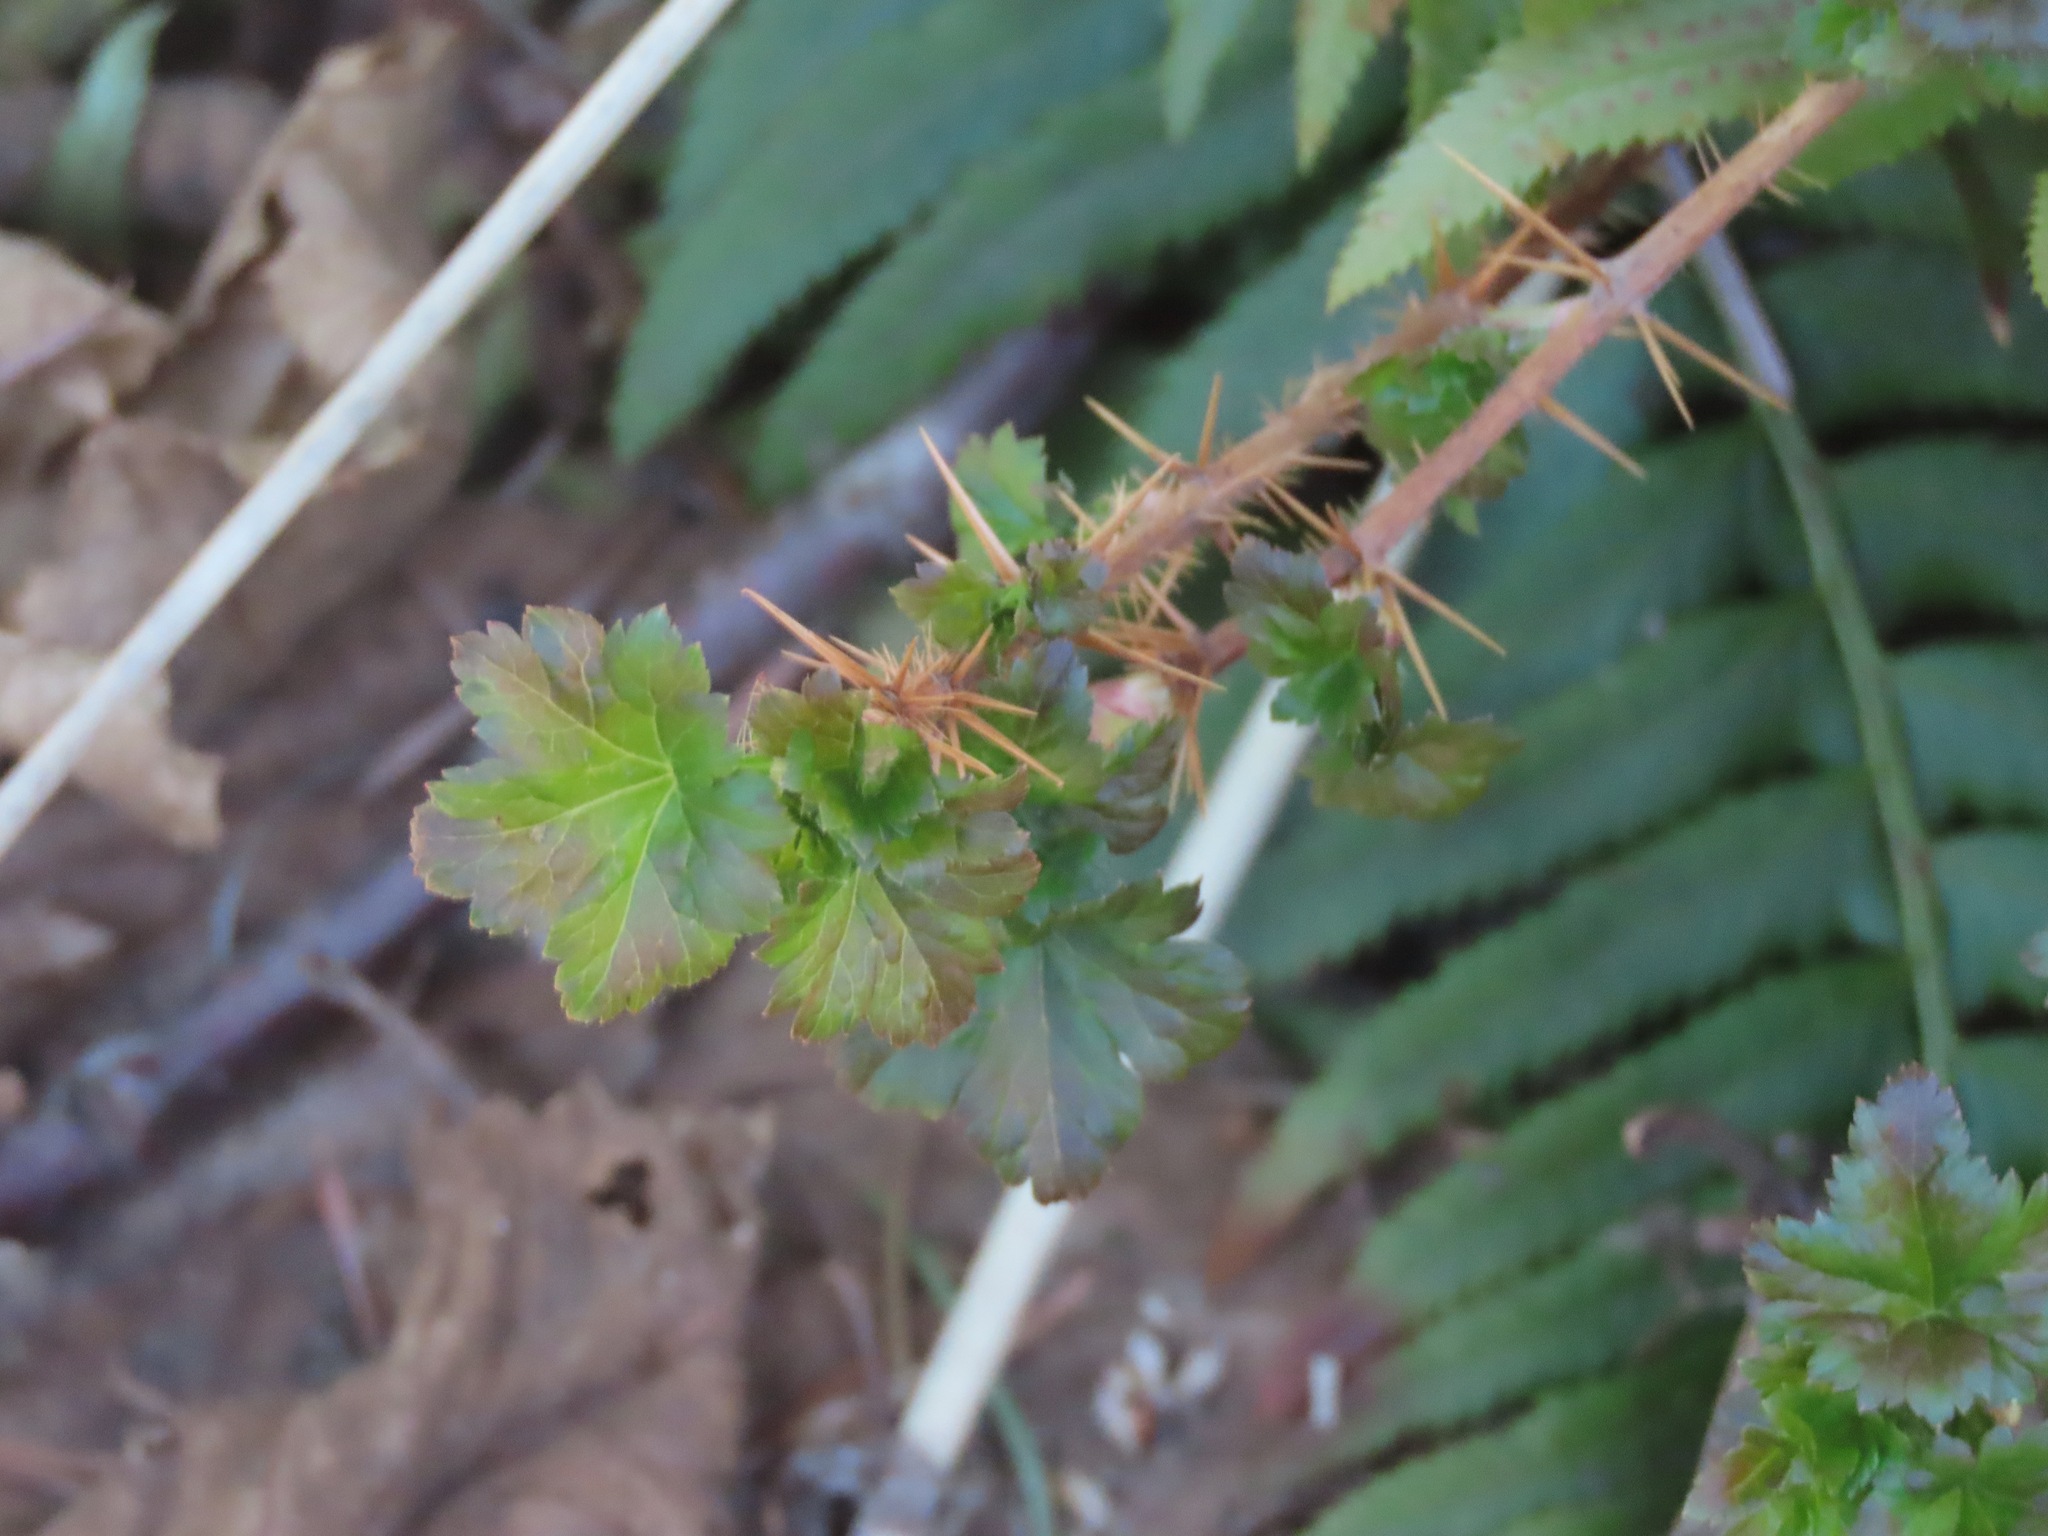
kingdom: Plantae
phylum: Tracheophyta
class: Magnoliopsida
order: Saxifragales
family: Grossulariaceae
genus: Ribes
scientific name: Ribes lacustre
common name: Black gooseberry
